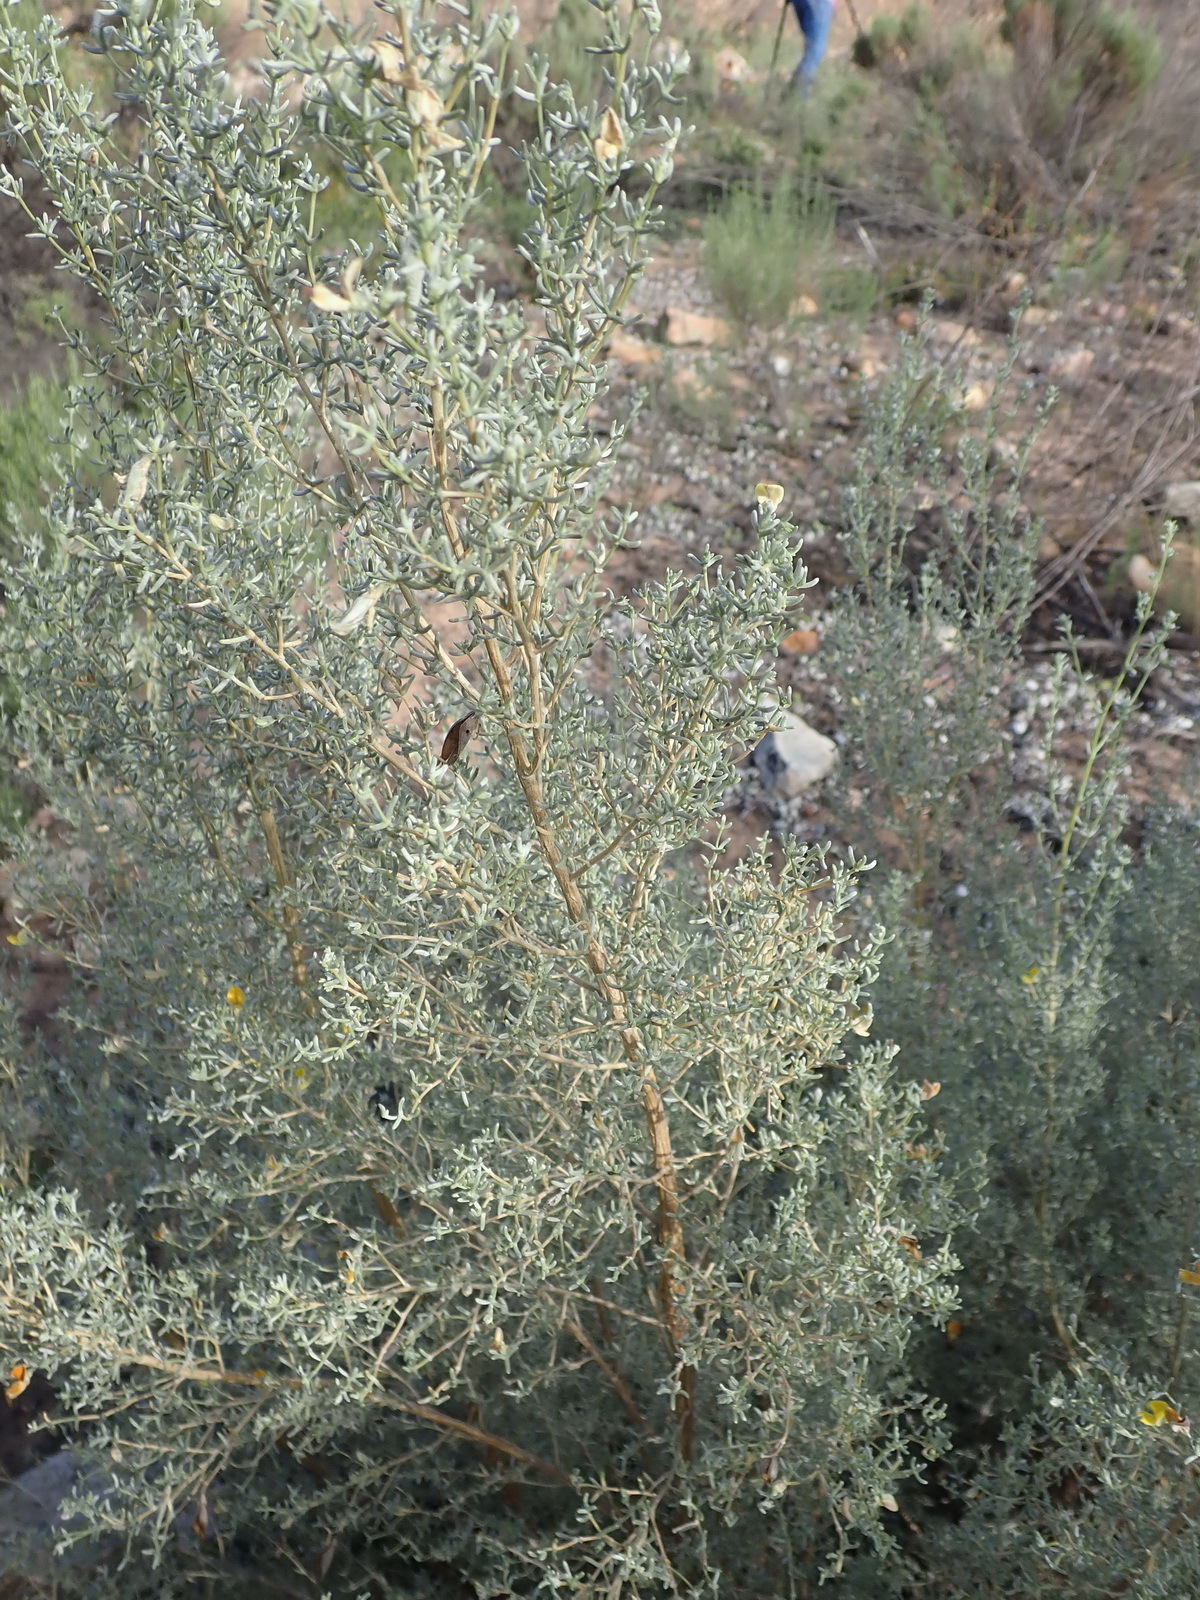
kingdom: Plantae
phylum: Tracheophyta
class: Magnoliopsida
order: Fabales
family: Fabaceae
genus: Aspalathus
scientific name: Aspalathus pedunculata
